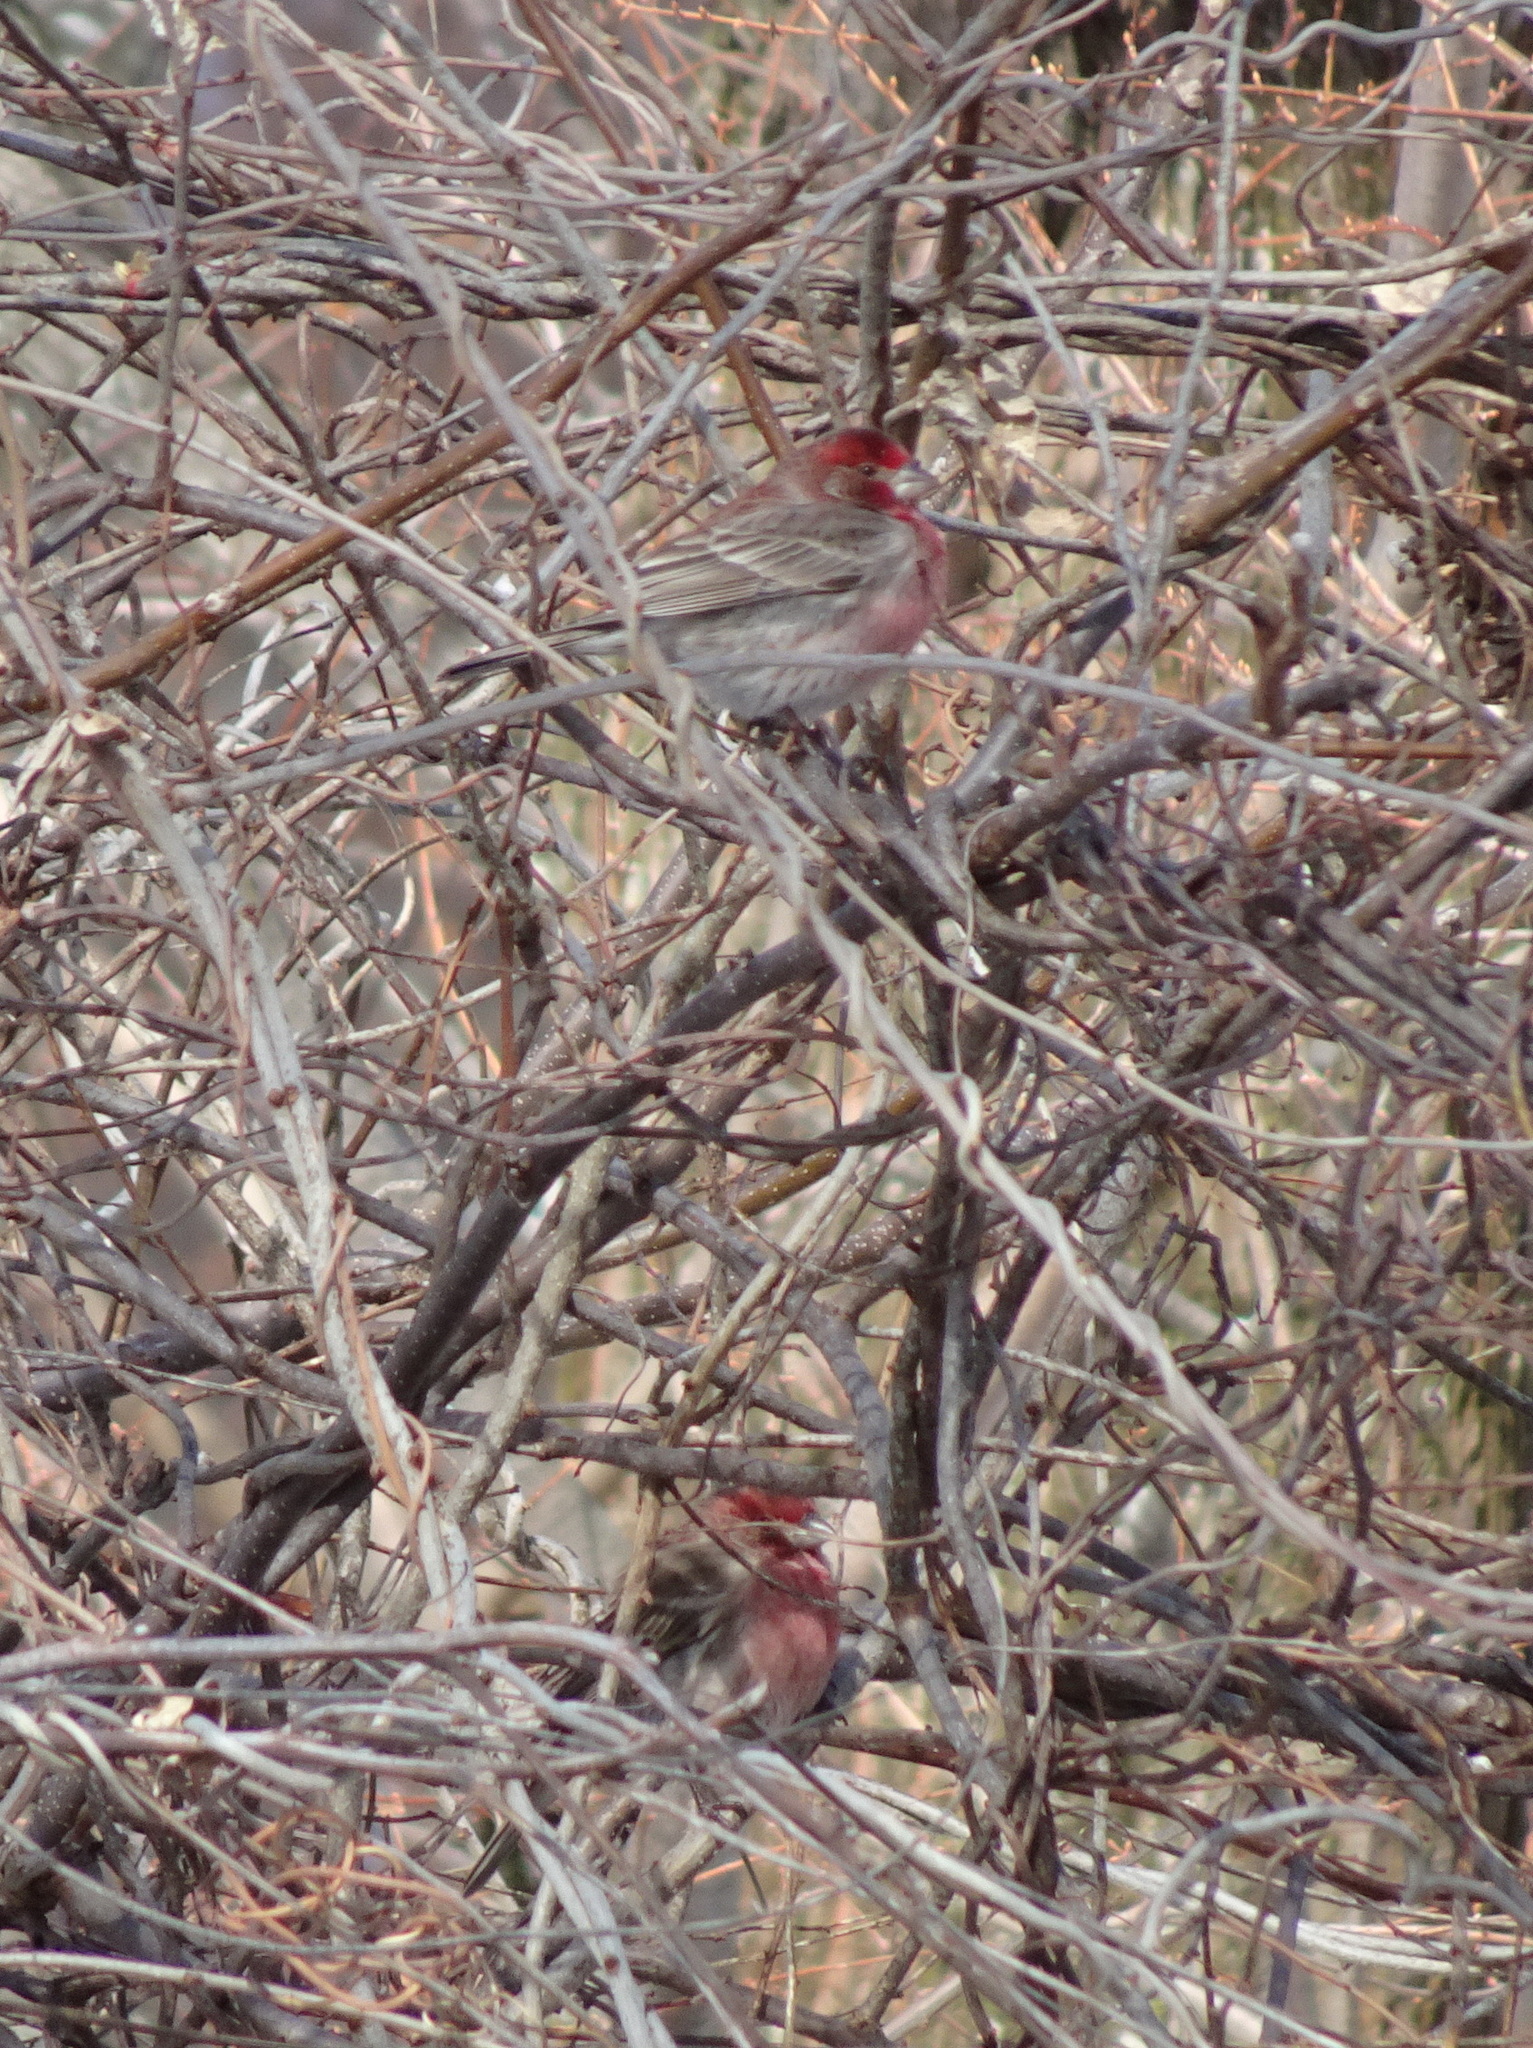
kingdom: Animalia
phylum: Chordata
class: Aves
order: Passeriformes
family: Fringillidae
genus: Haemorhous
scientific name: Haemorhous mexicanus
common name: House finch
